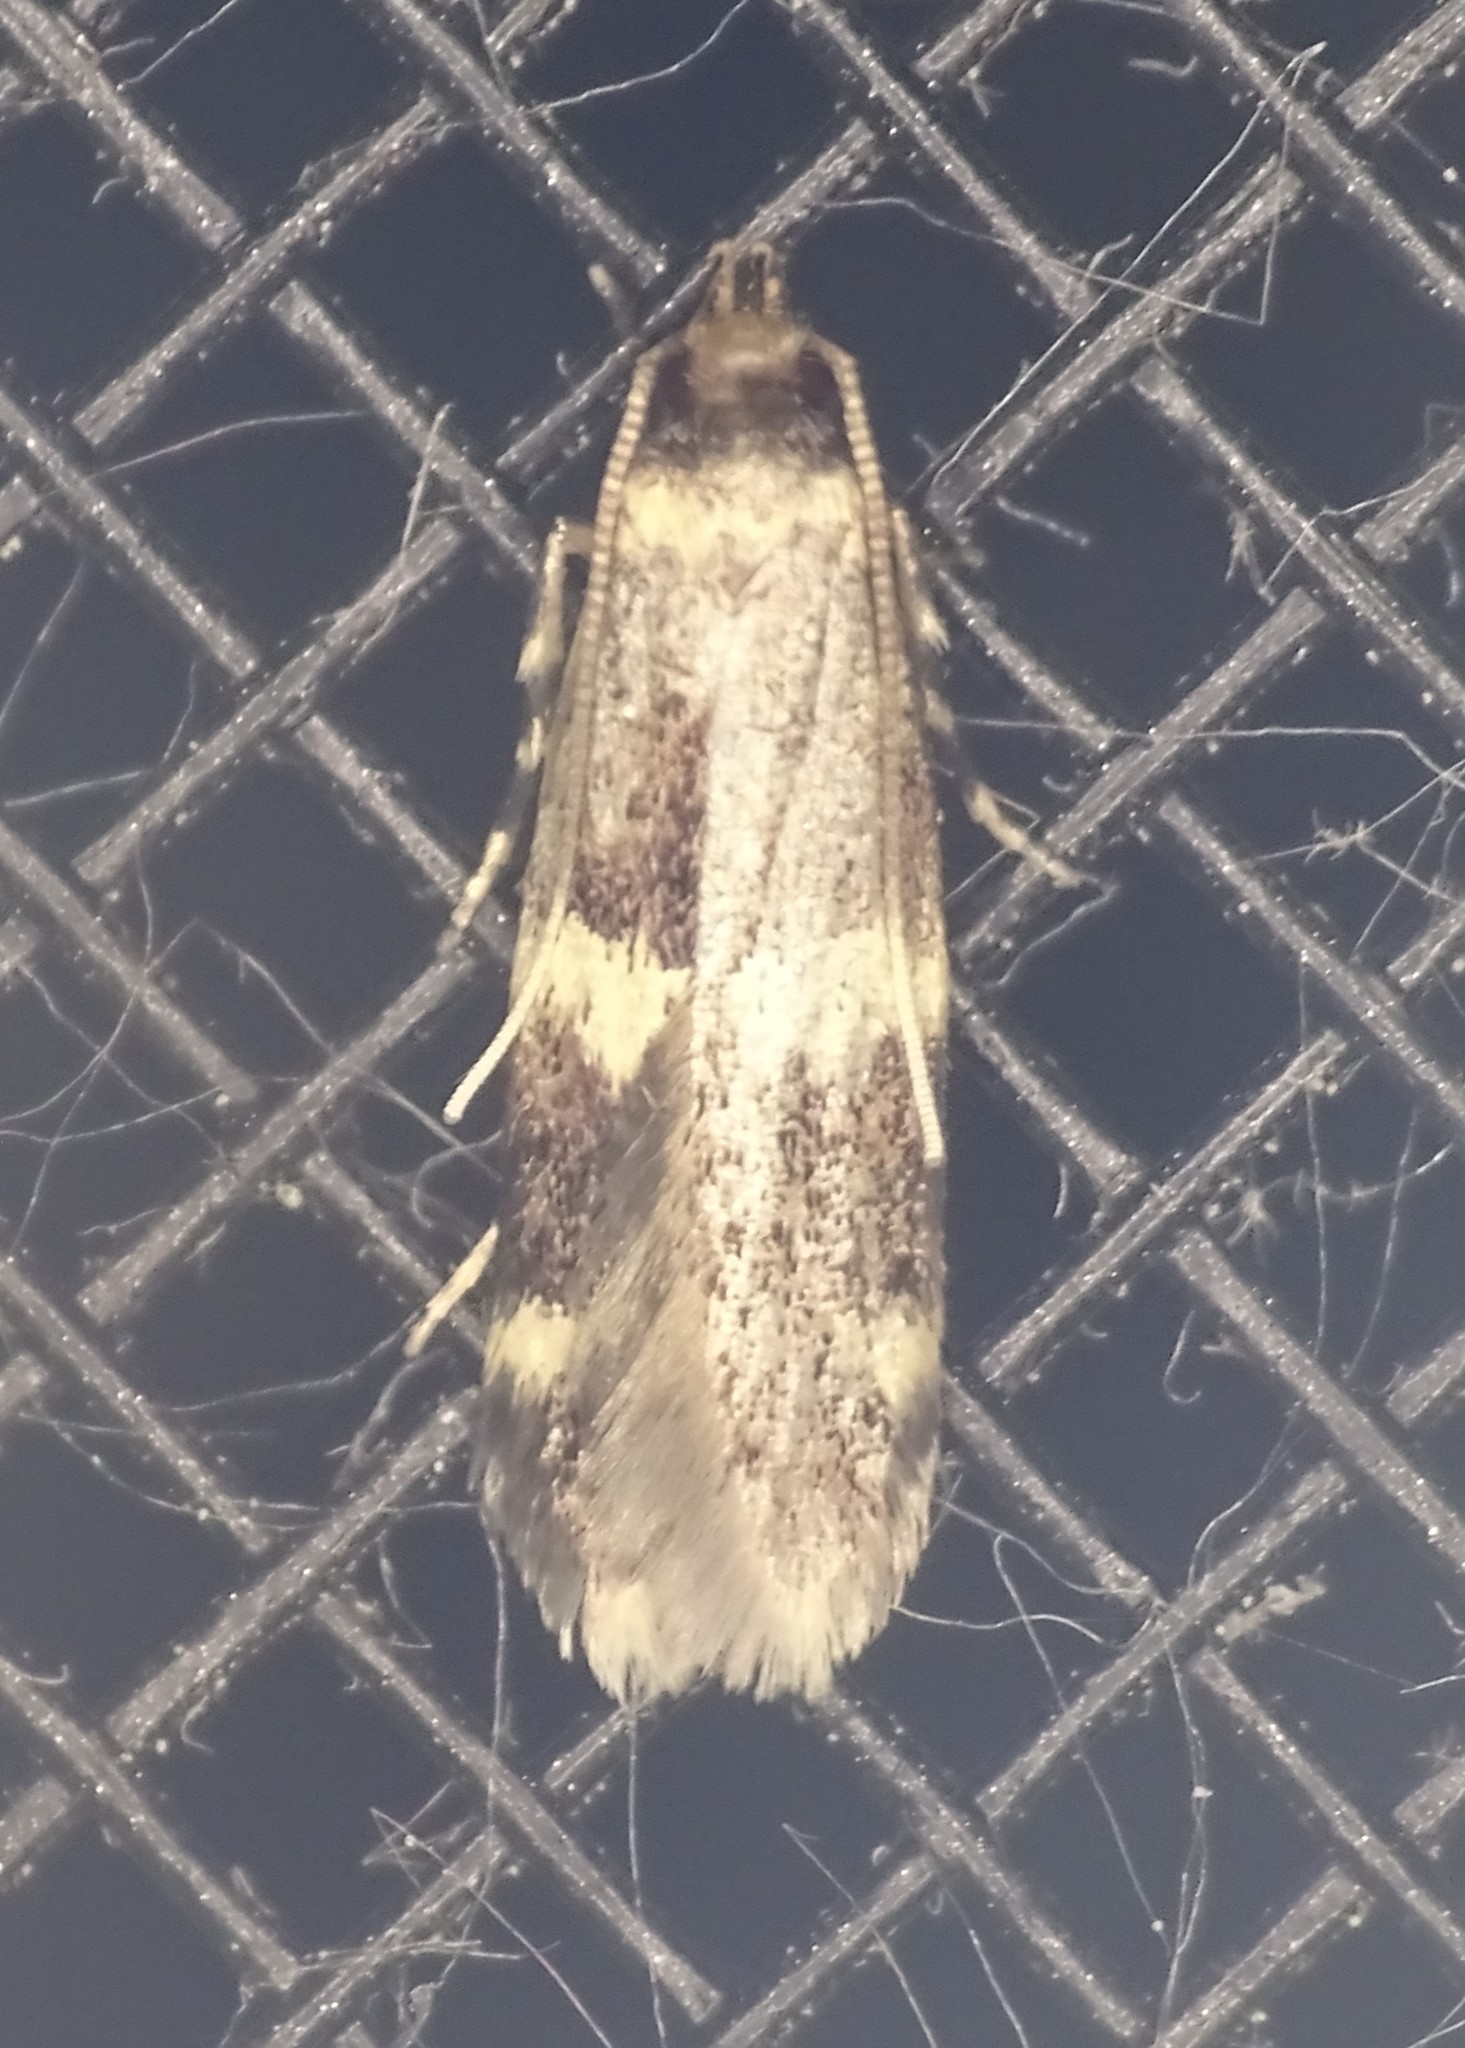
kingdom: Animalia
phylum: Arthropoda
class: Insecta
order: Lepidoptera
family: Autostichidae
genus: Oegoconia
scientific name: Oegoconia
